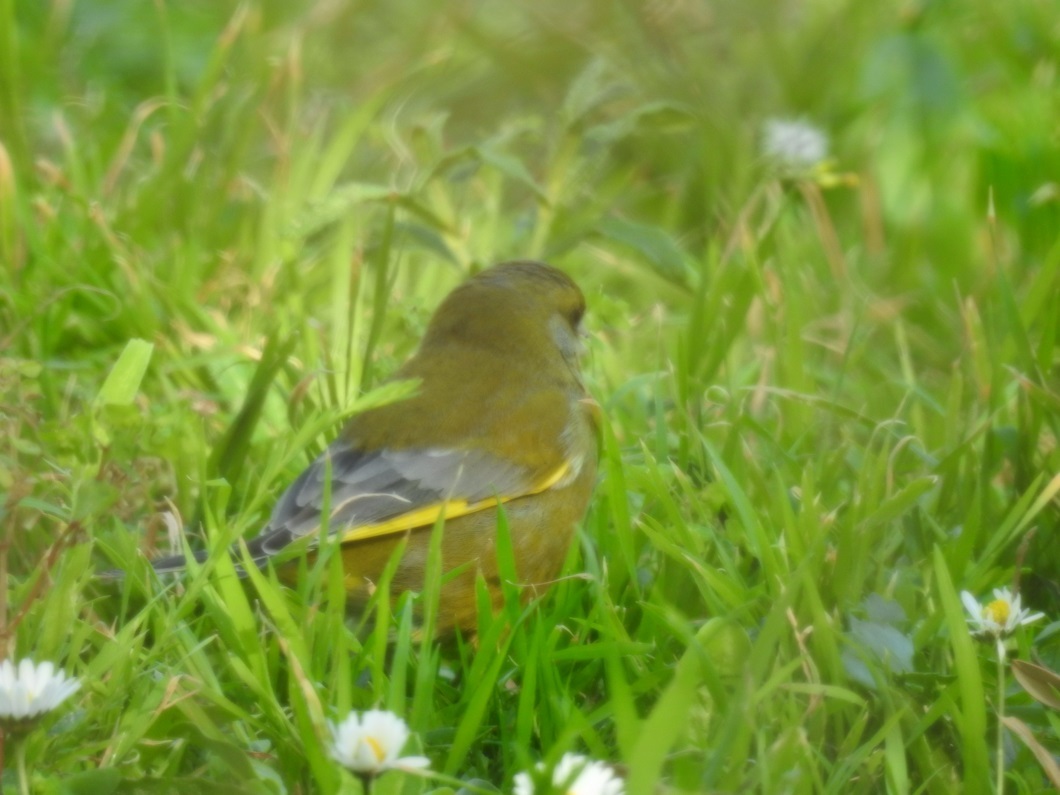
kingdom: Plantae
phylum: Tracheophyta
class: Liliopsida
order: Poales
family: Poaceae
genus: Chloris
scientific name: Chloris chloris
